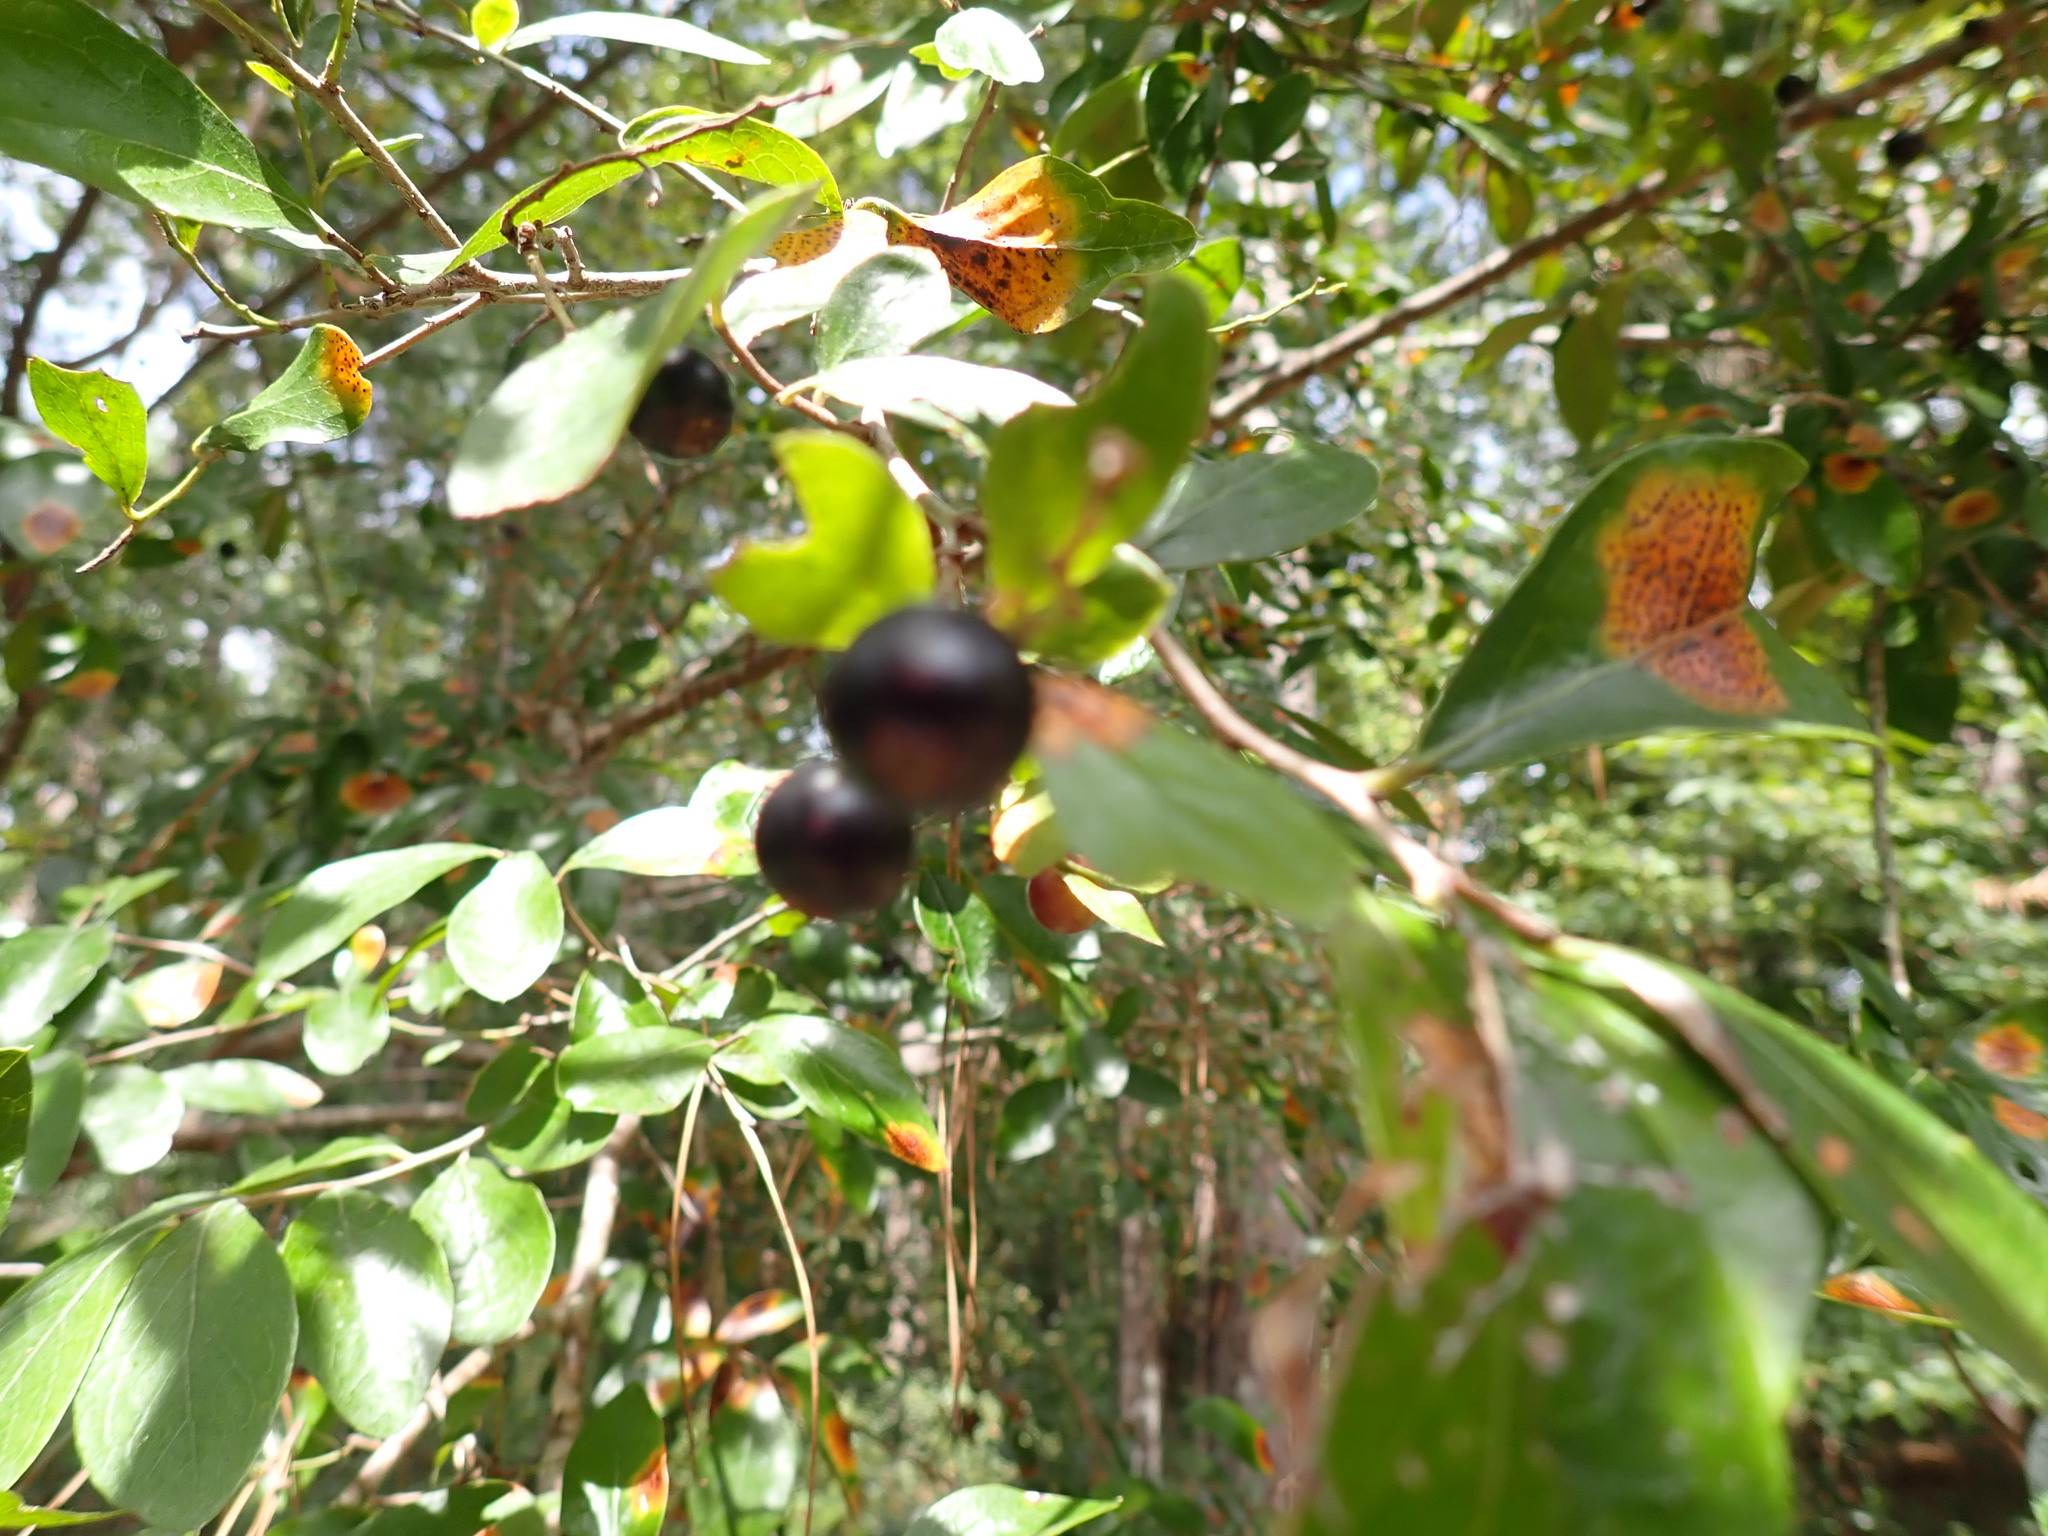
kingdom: Plantae
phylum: Tracheophyta
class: Magnoliopsida
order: Ericales
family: Ericaceae
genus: Vaccinium
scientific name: Vaccinium arboreum
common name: Farkleberry
